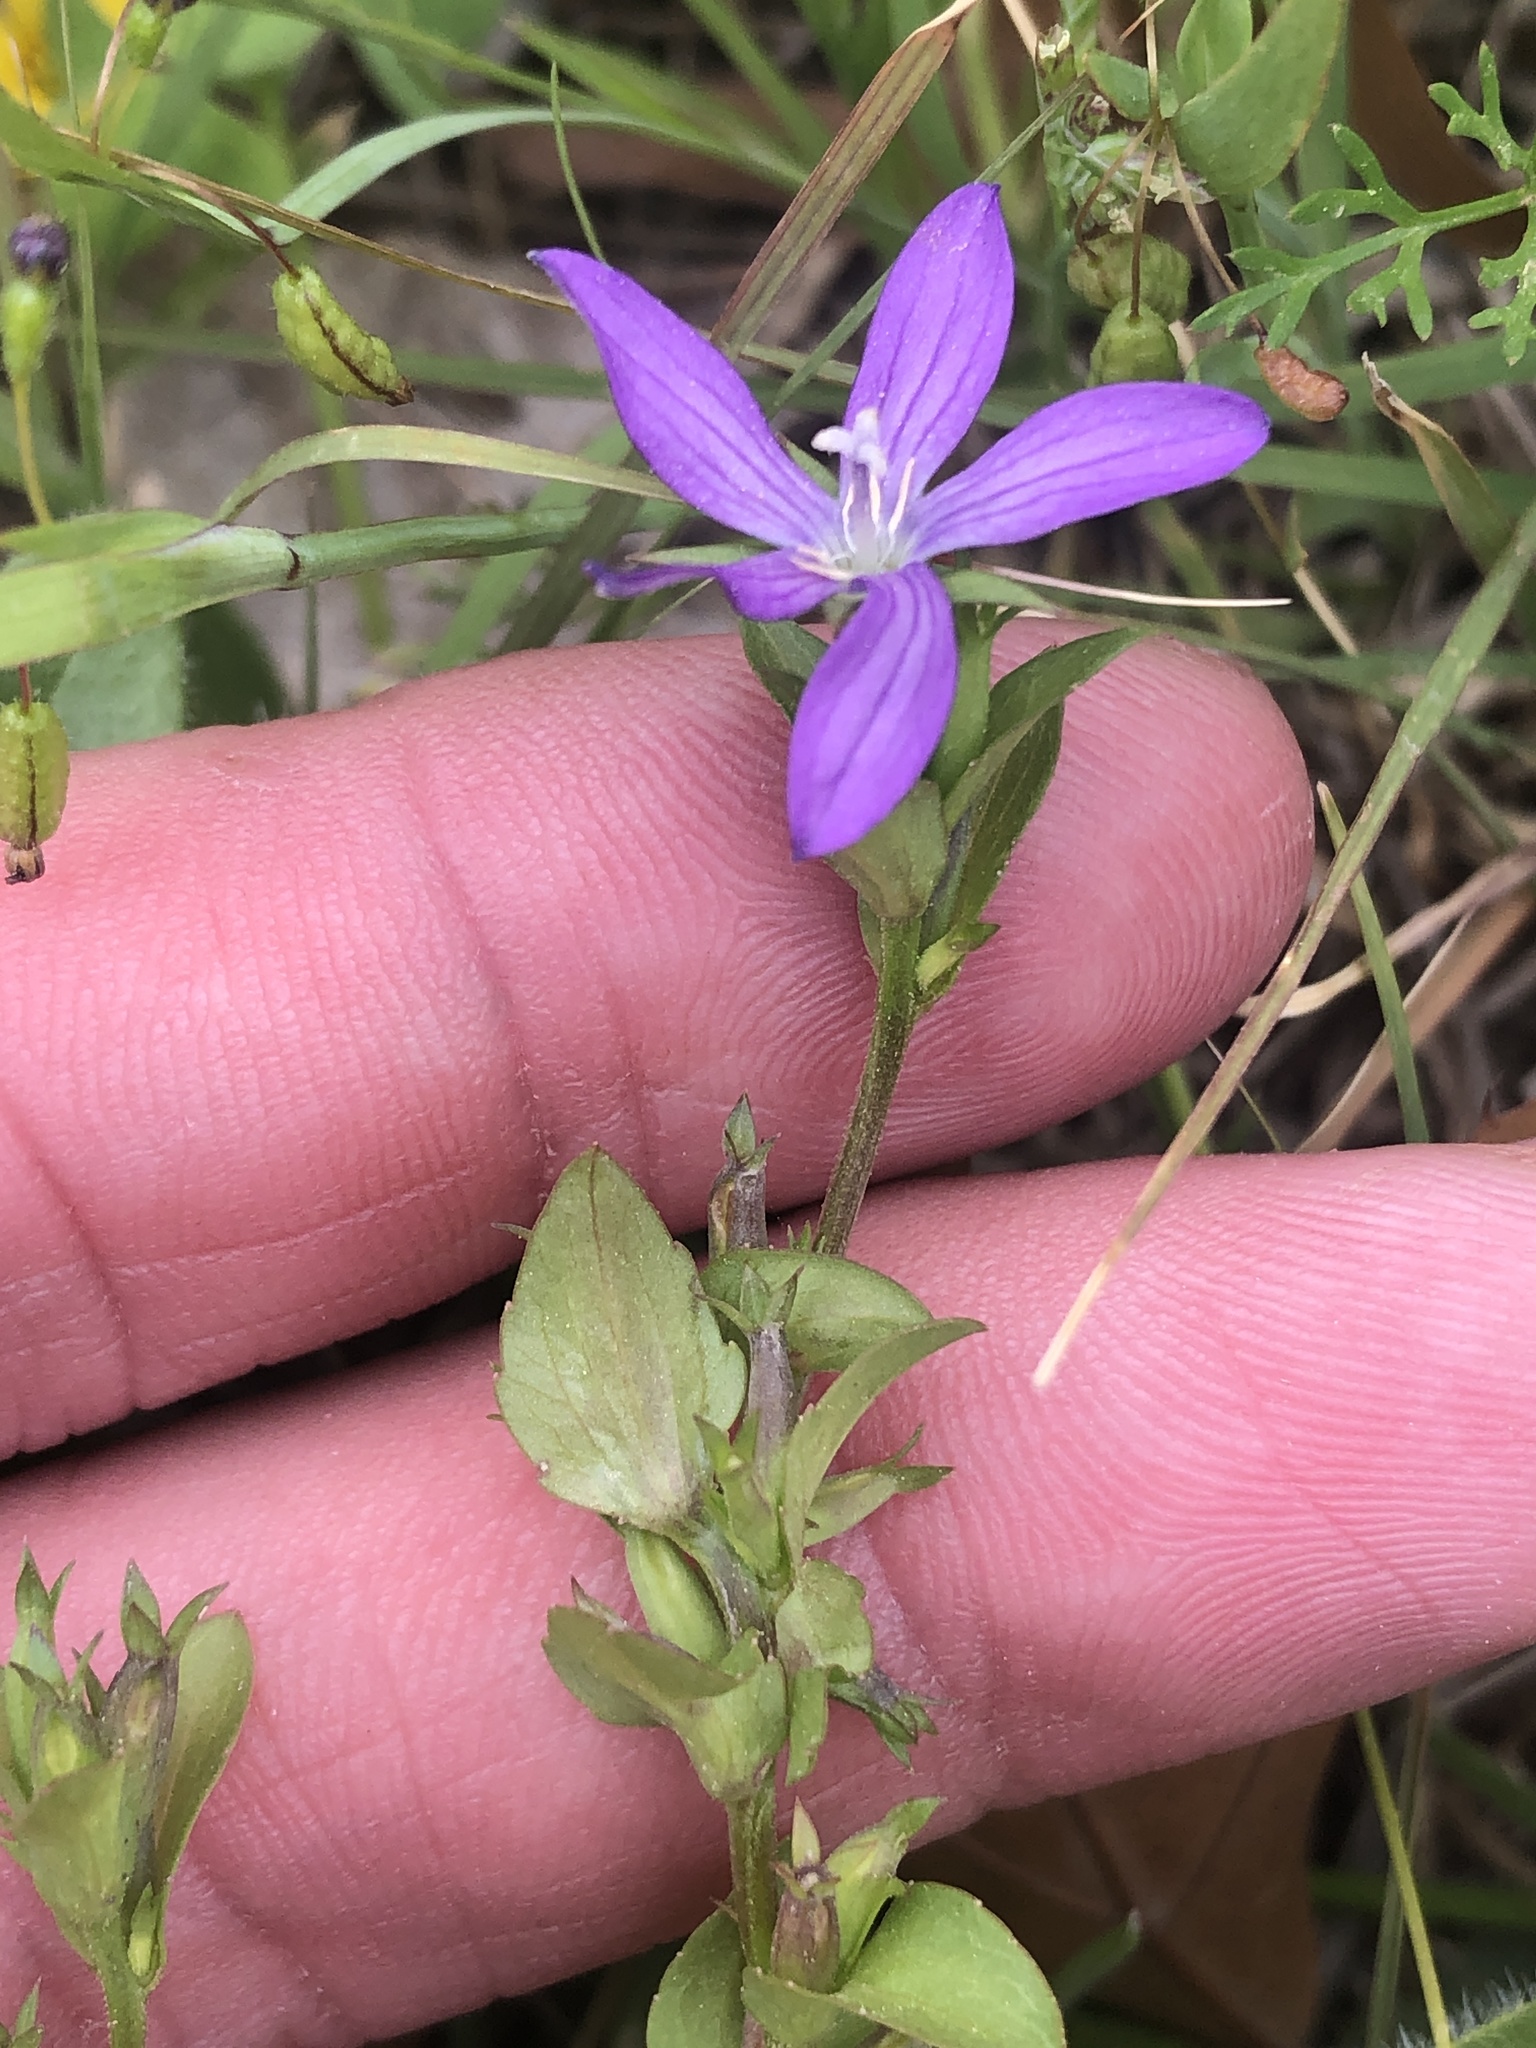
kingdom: Plantae
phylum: Tracheophyta
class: Magnoliopsida
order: Asterales
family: Campanulaceae
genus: Triodanis
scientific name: Triodanis biflora
